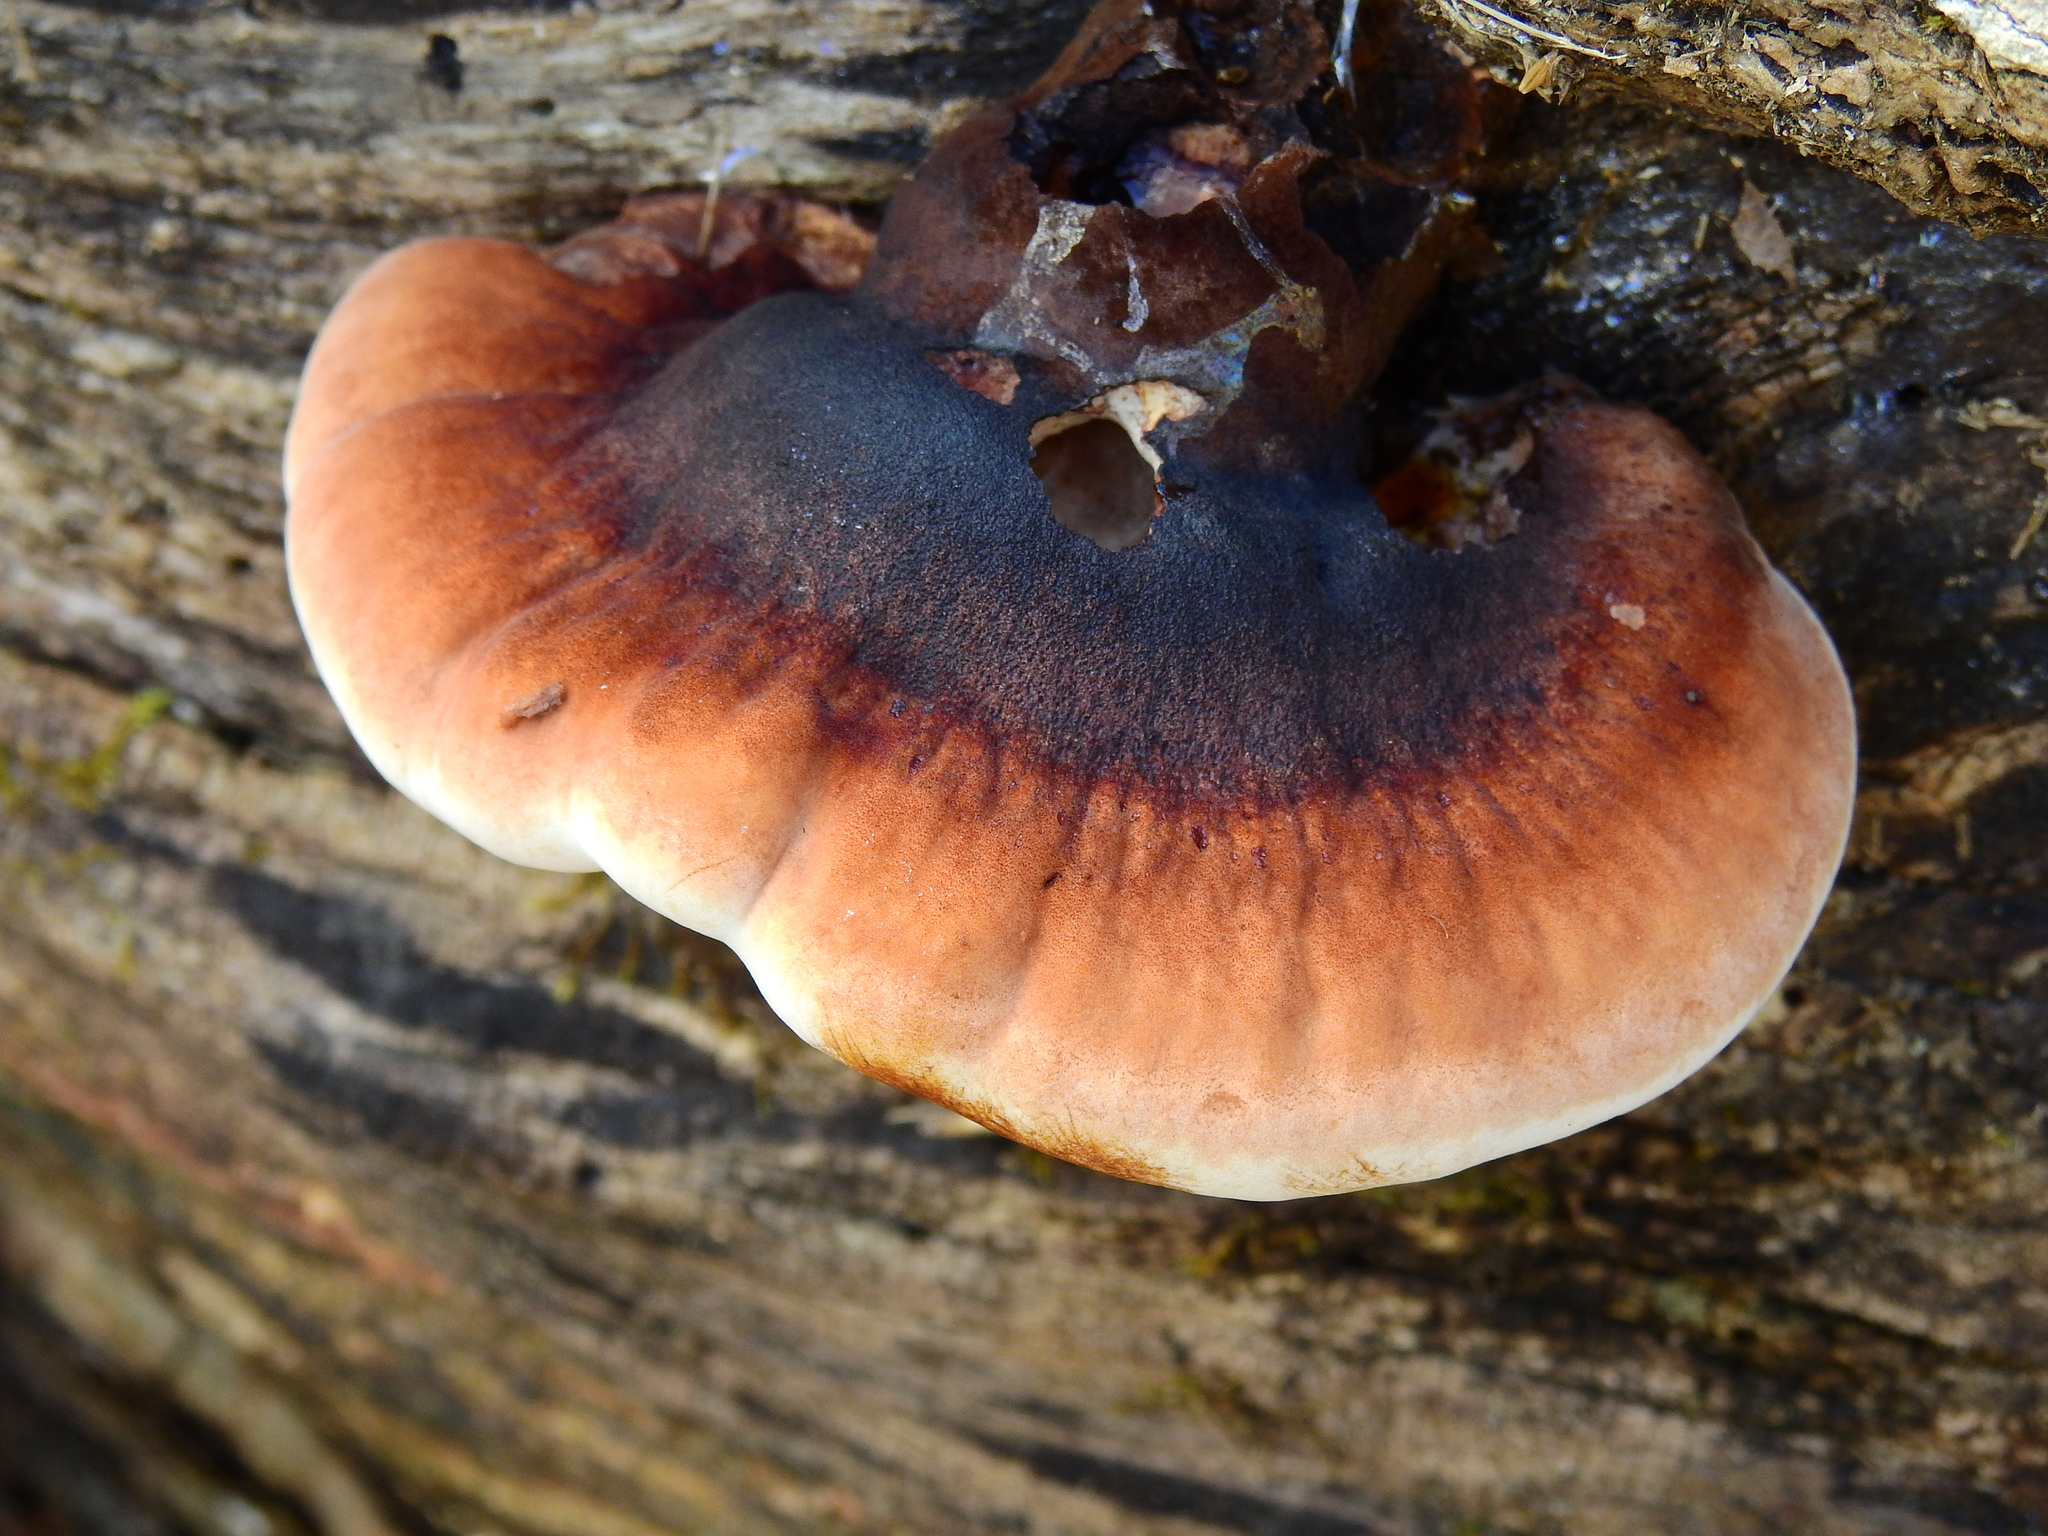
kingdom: Fungi
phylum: Basidiomycota
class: Agaricomycetes
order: Polyporales
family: Ischnodermataceae
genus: Ischnoderma
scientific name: Ischnoderma resinosum
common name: Resinous polypore
